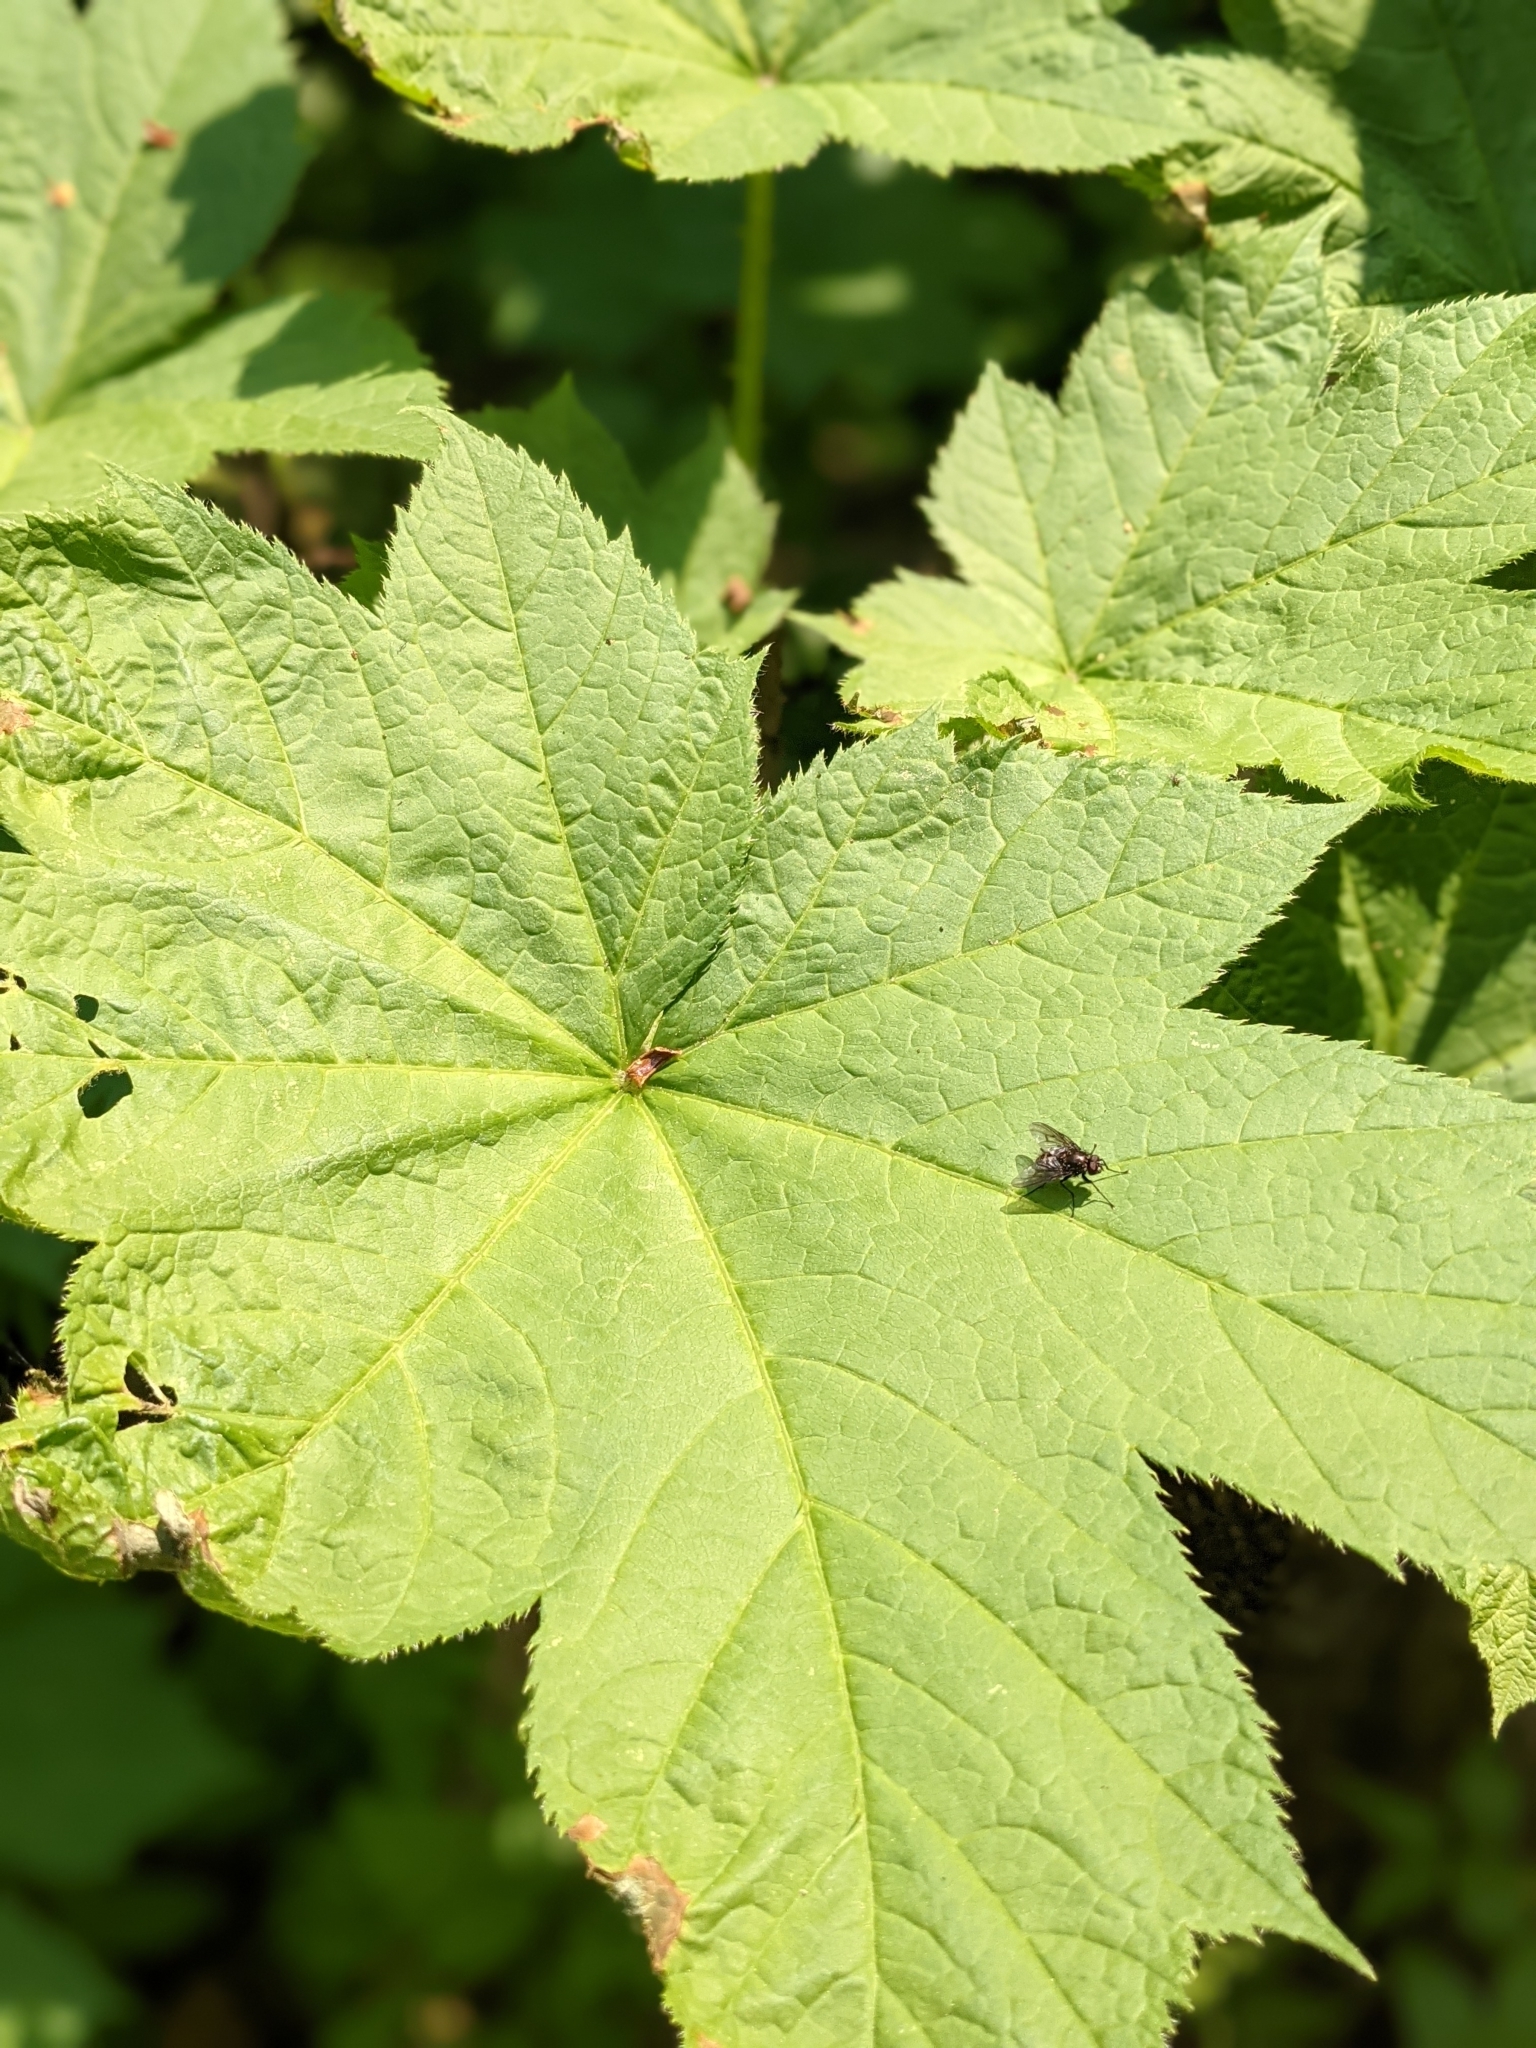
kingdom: Plantae
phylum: Tracheophyta
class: Magnoliopsida
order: Apiales
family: Araliaceae
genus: Oplopanax
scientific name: Oplopanax horridus
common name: Devil's walking-stick
